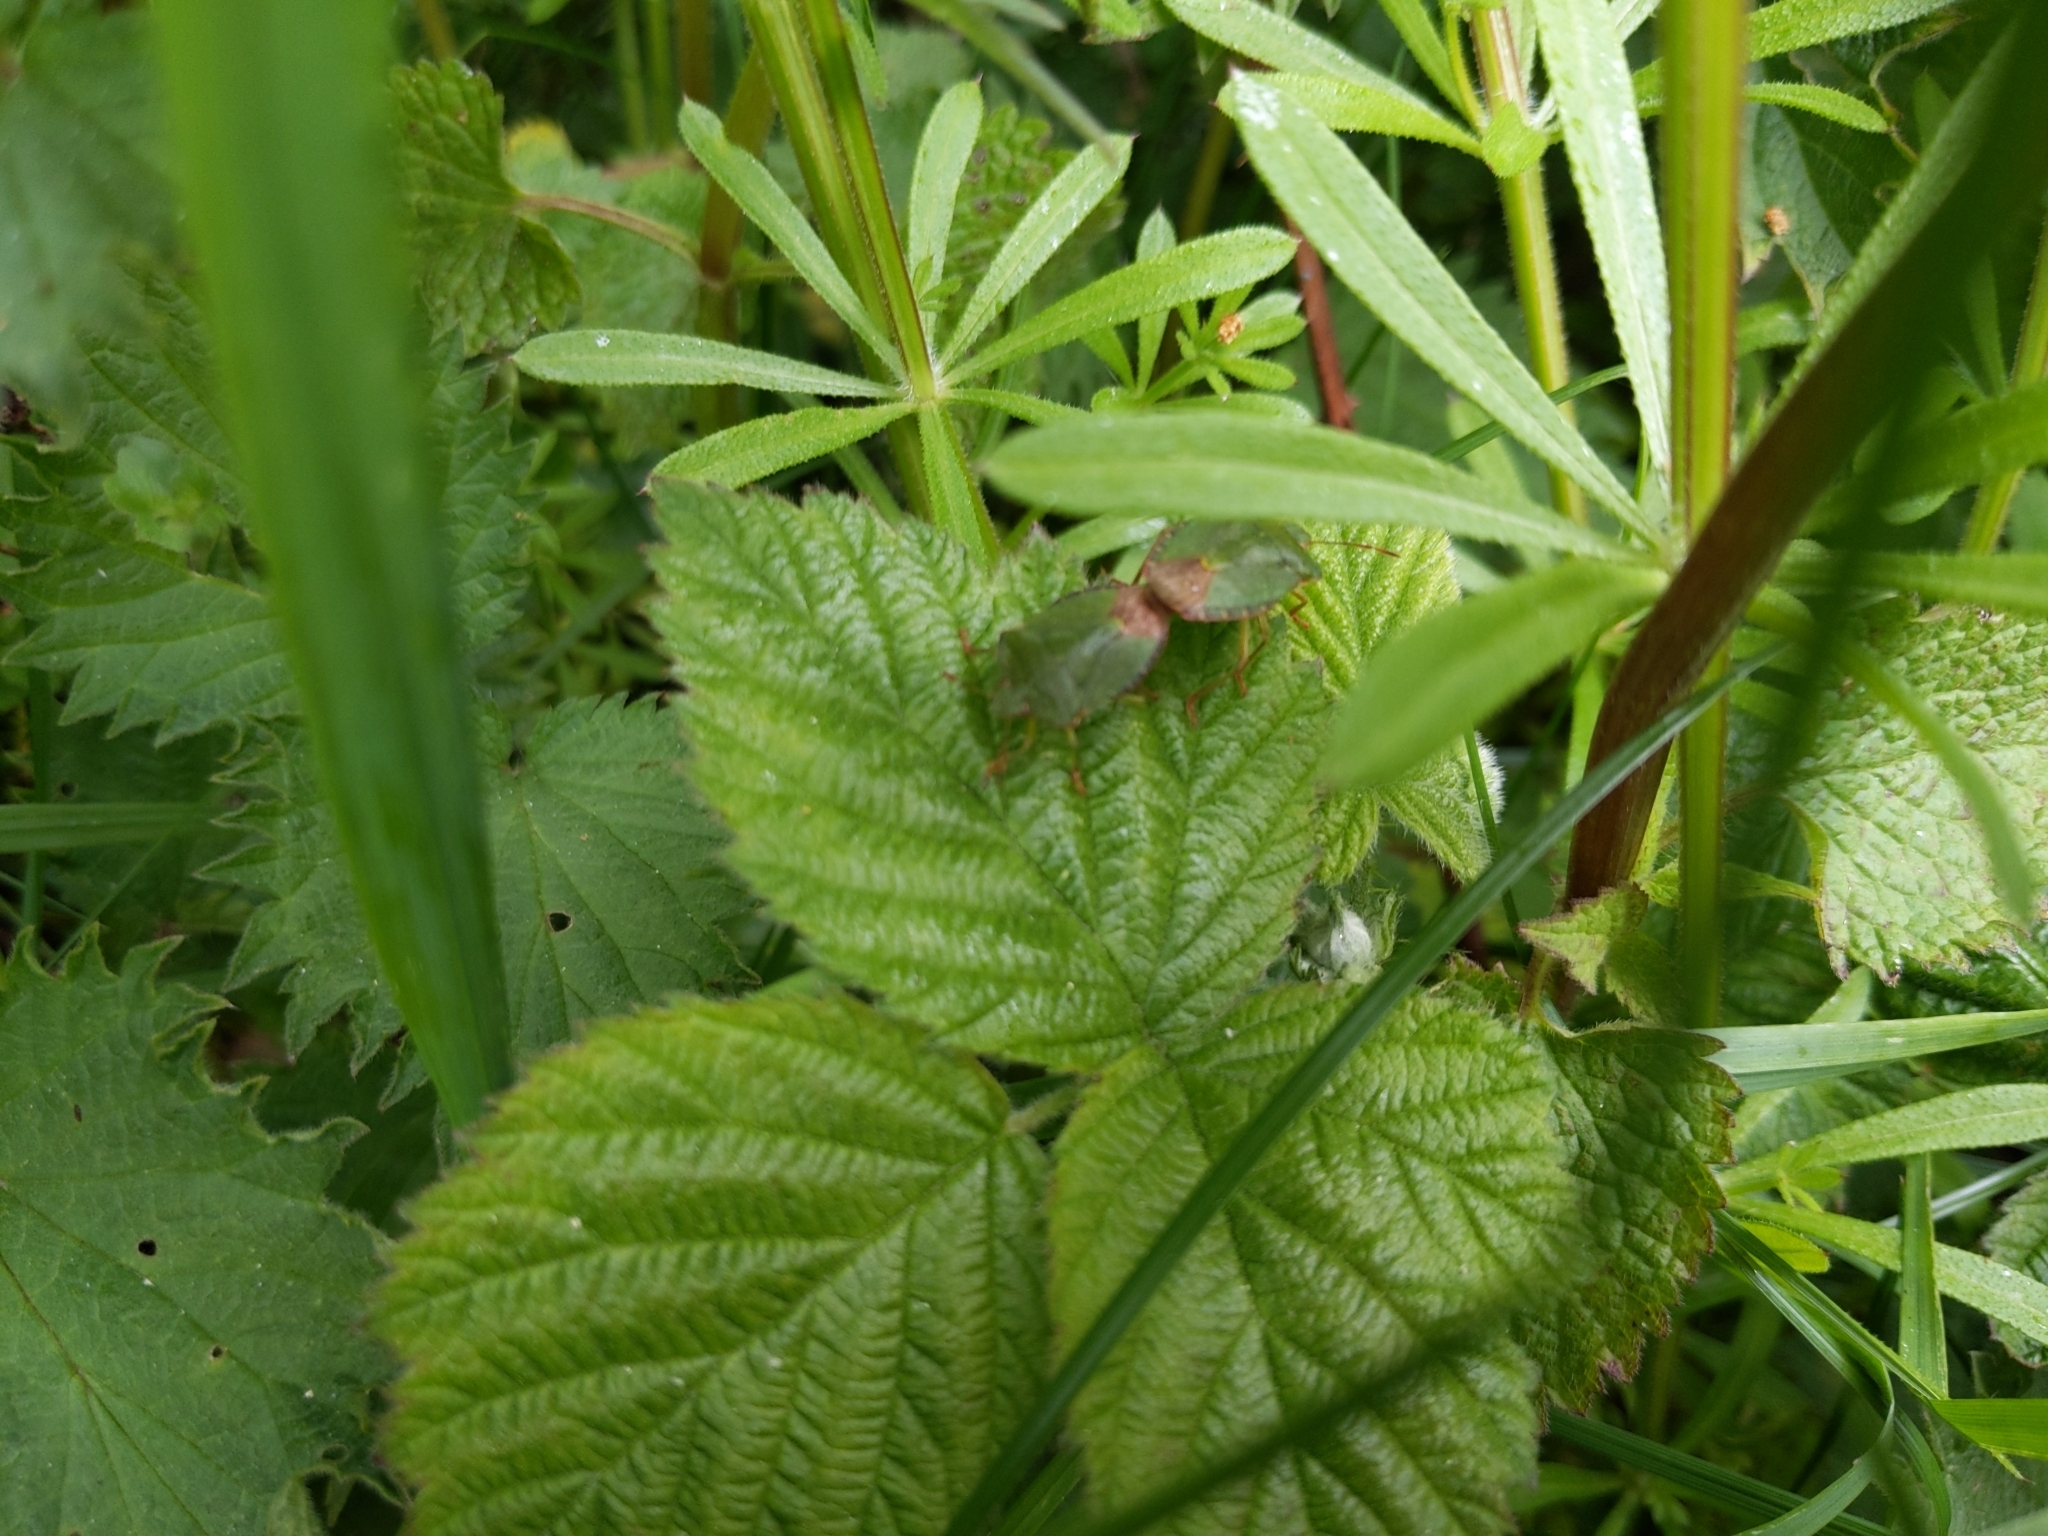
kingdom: Animalia
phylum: Arthropoda
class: Insecta
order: Hemiptera
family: Pentatomidae
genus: Palomena
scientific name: Palomena prasina
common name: Green shieldbug
